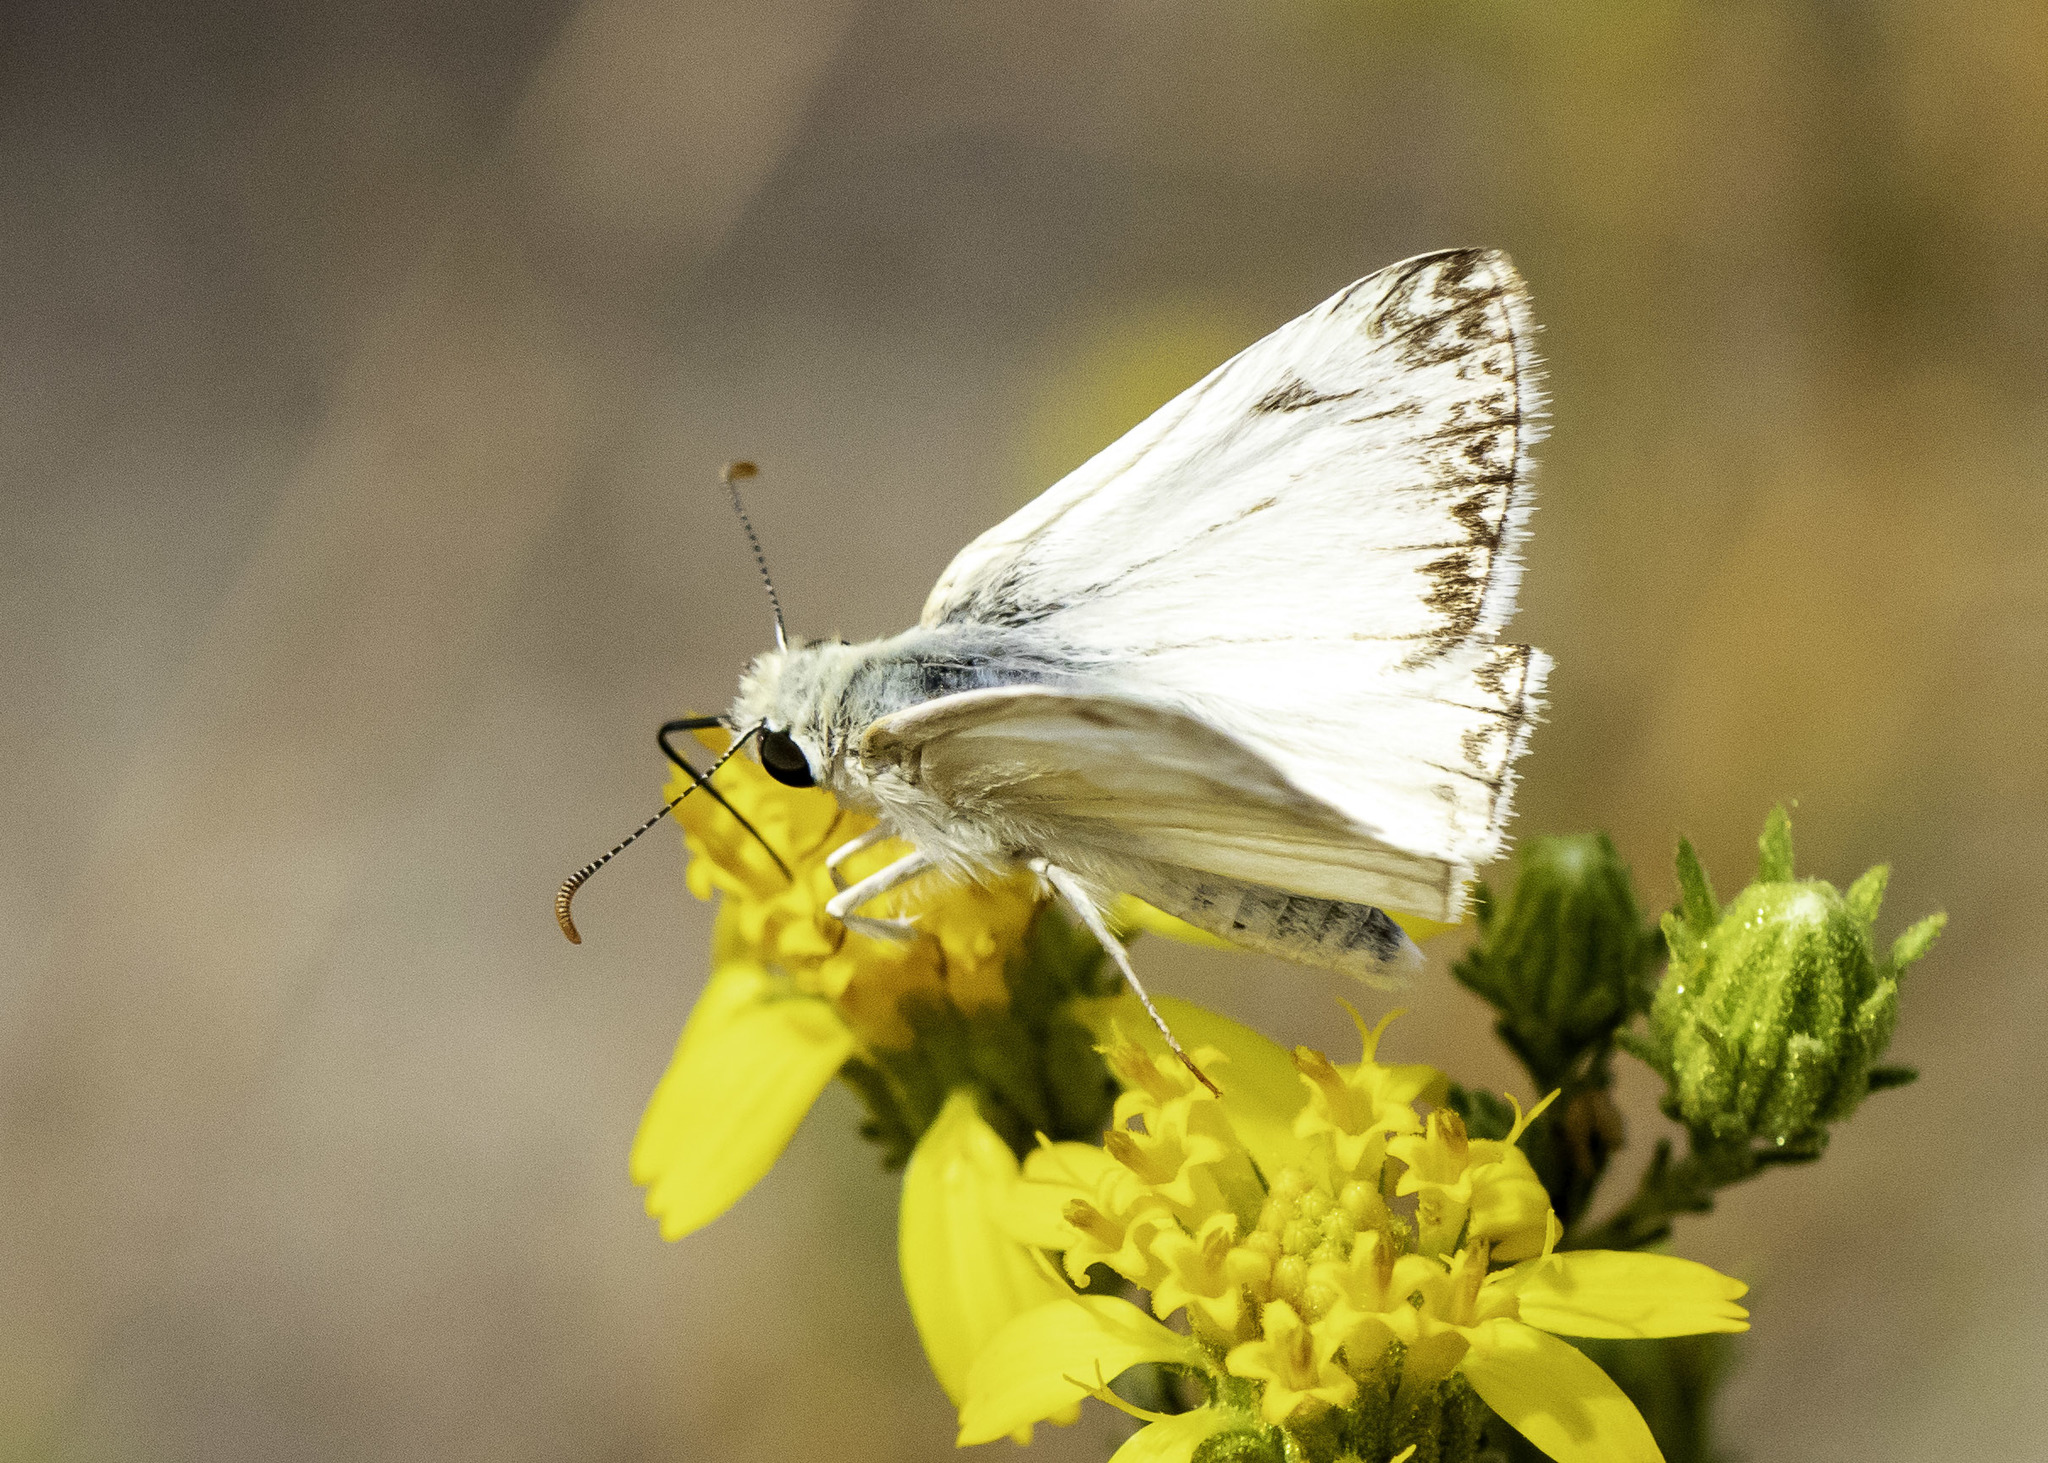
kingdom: Animalia
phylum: Arthropoda
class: Insecta
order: Lepidoptera
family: Hesperiidae
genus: Heliopetes
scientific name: Heliopetes ericetorum
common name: Northern white-skipper
